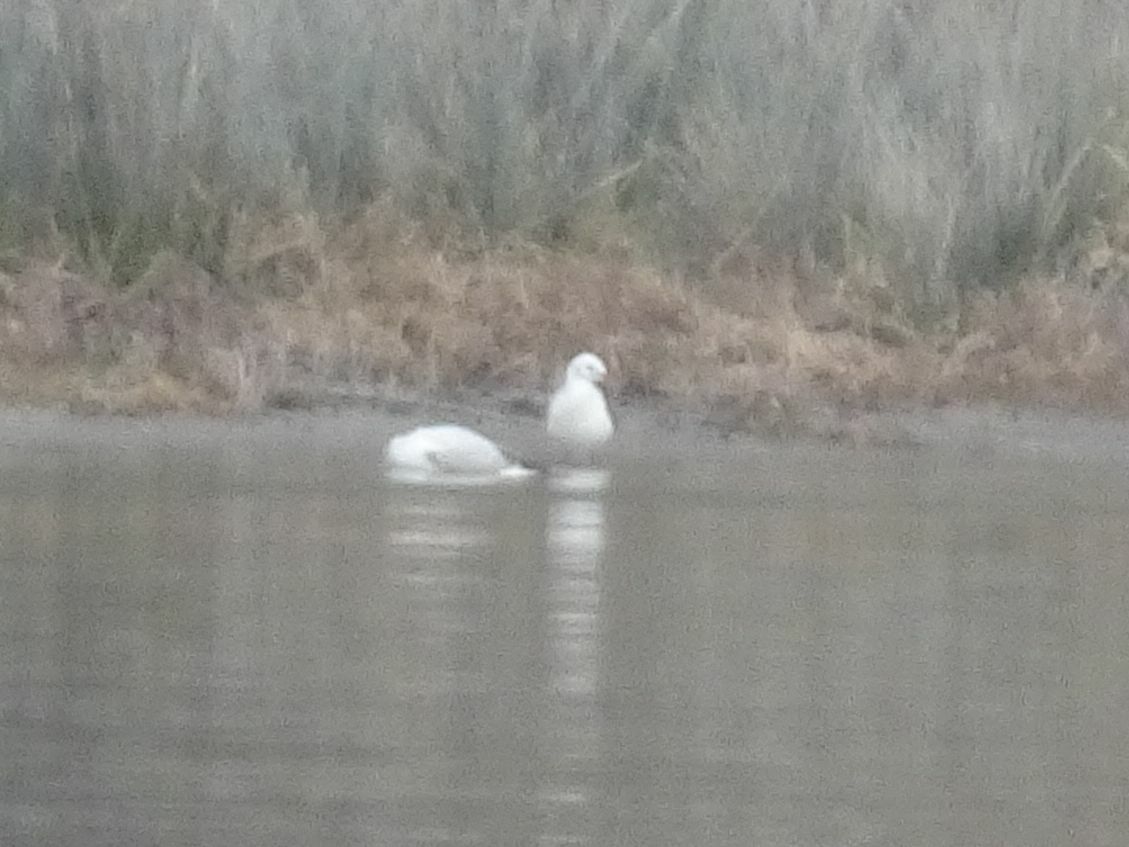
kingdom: Animalia
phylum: Chordata
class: Aves
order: Charadriiformes
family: Laridae
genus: Chroicocephalus
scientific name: Chroicocephalus ridibundus
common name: Black-headed gull
